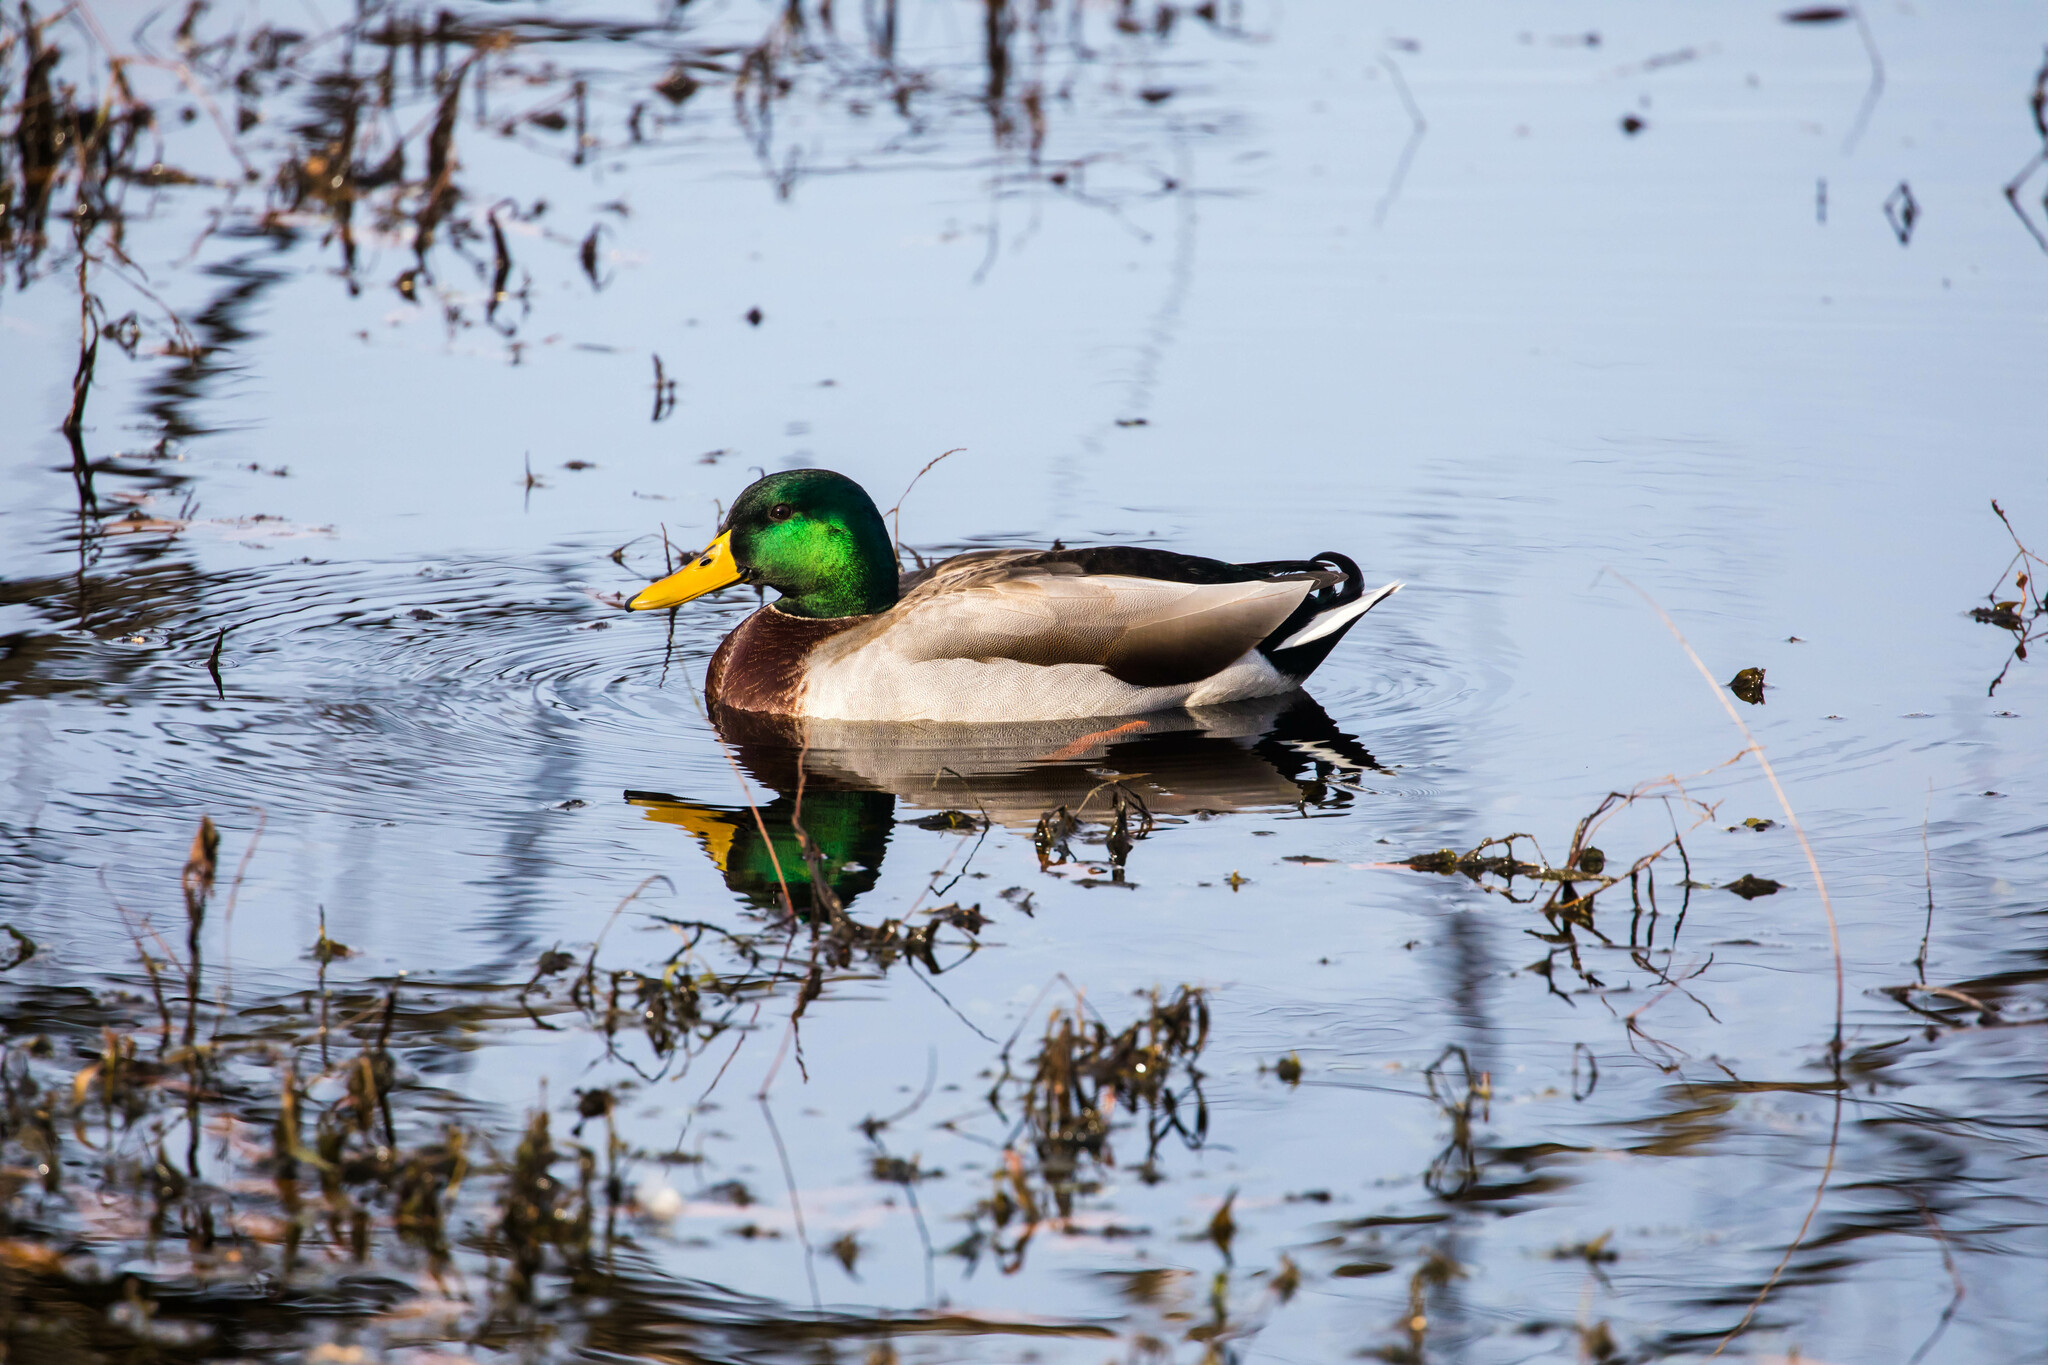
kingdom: Animalia
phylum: Chordata
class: Aves
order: Anseriformes
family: Anatidae
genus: Anas
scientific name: Anas platyrhynchos
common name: Mallard
